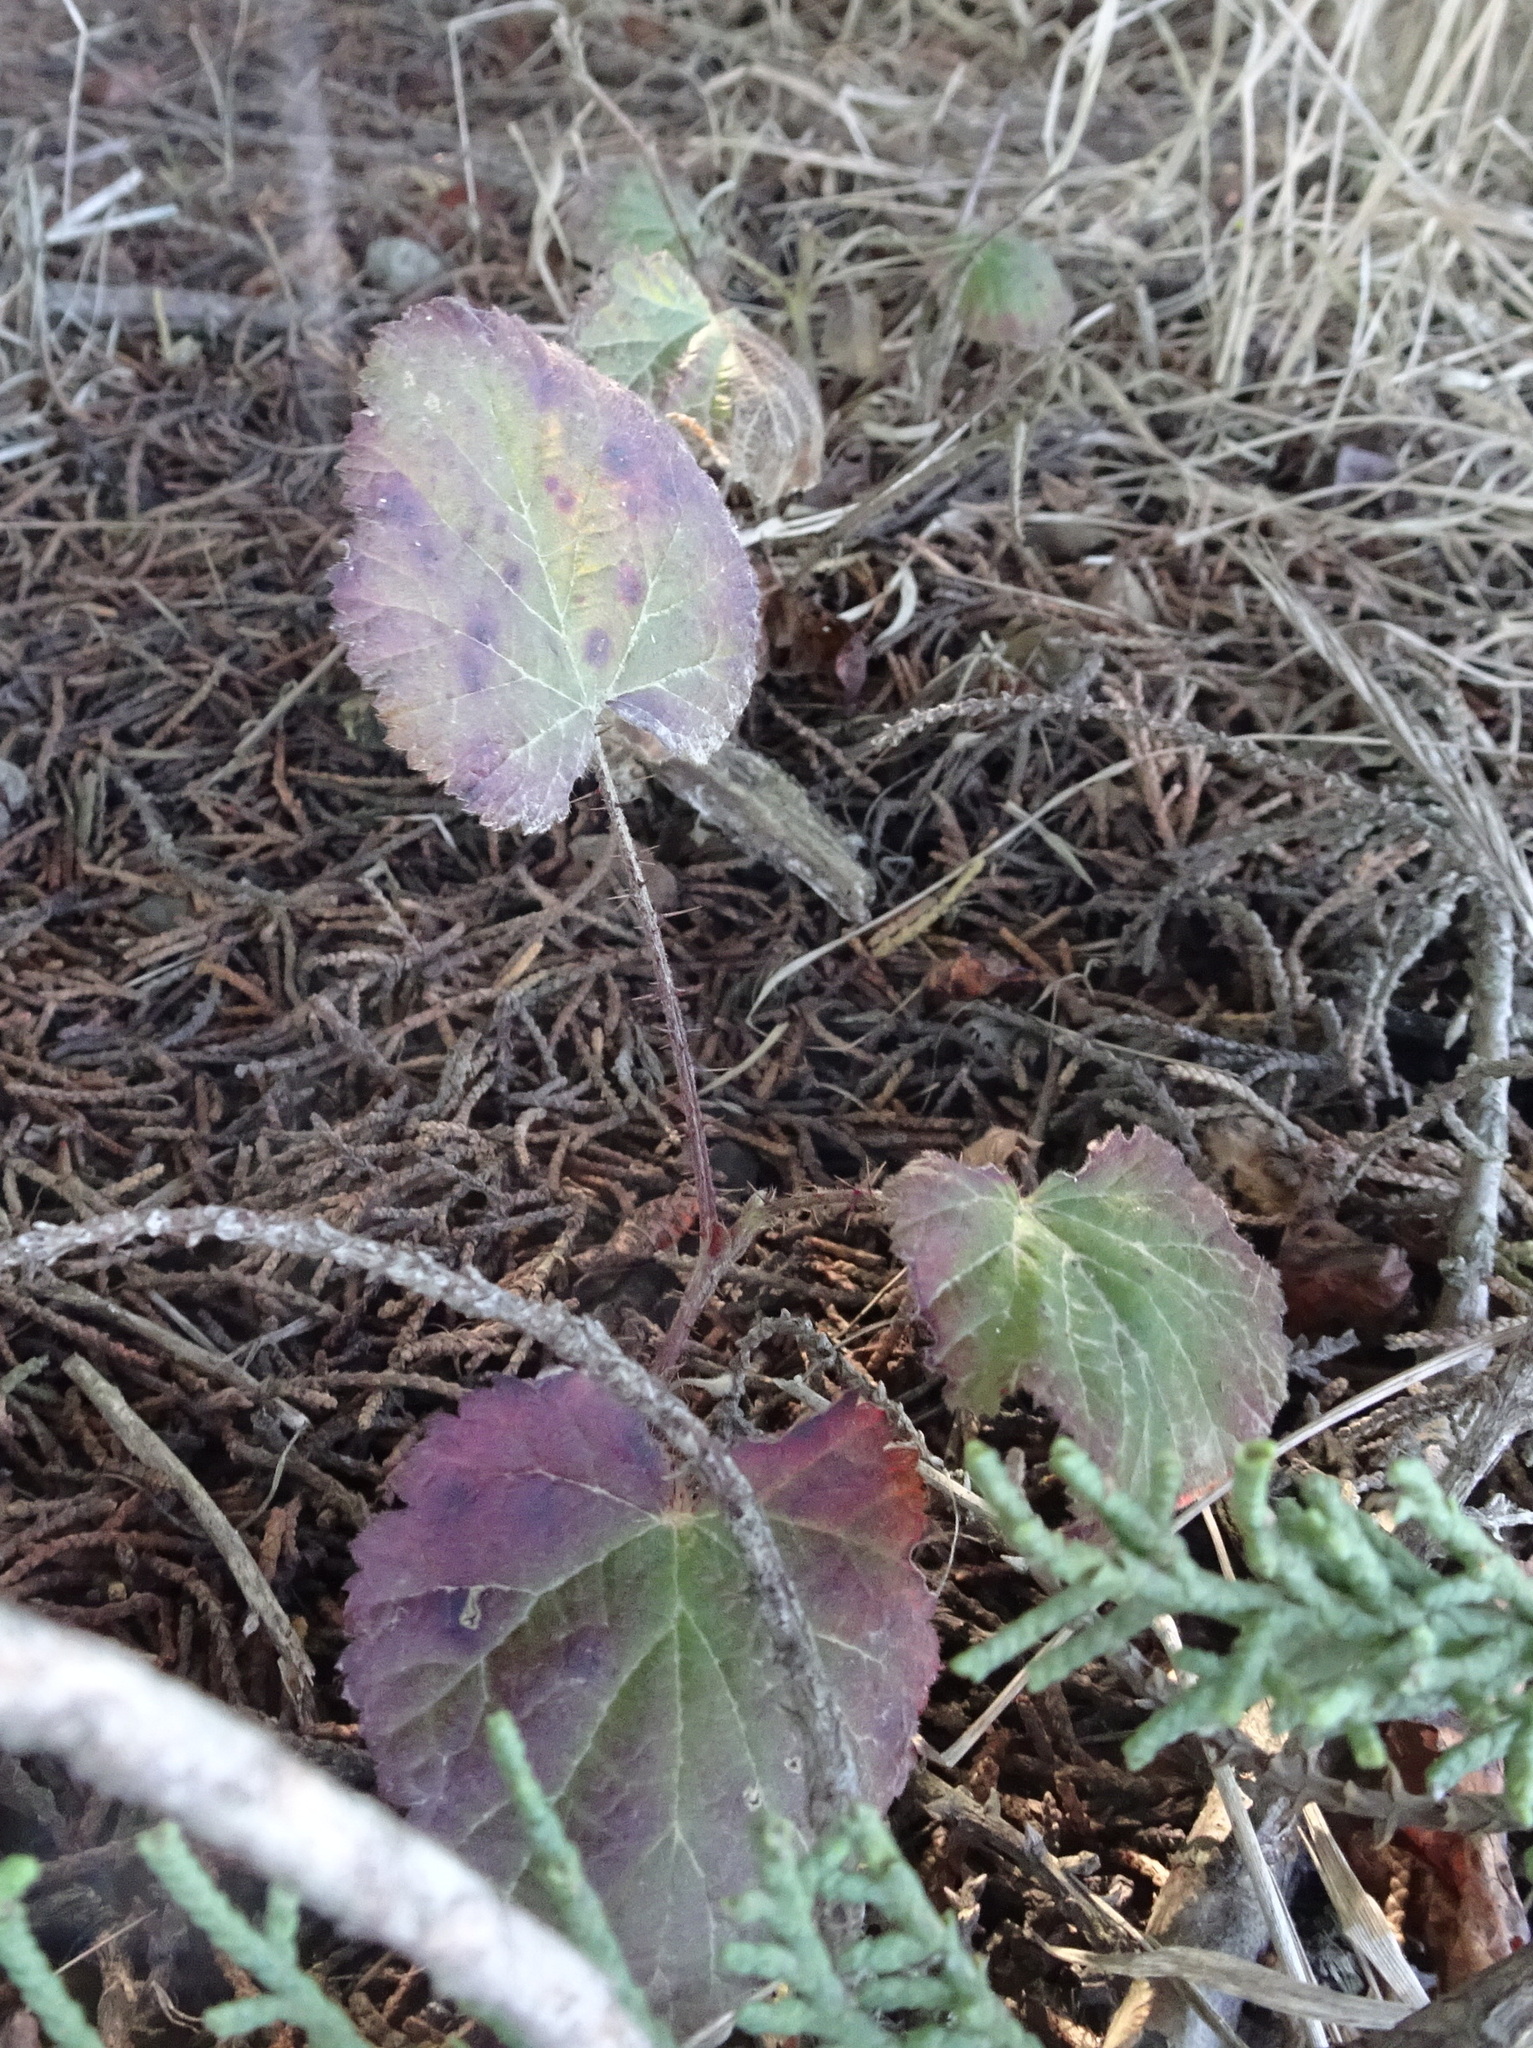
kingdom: Plantae
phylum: Tracheophyta
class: Magnoliopsida
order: Rosales
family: Rosaceae
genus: Rubus
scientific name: Rubus ursinus
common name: Pacific blackberry
